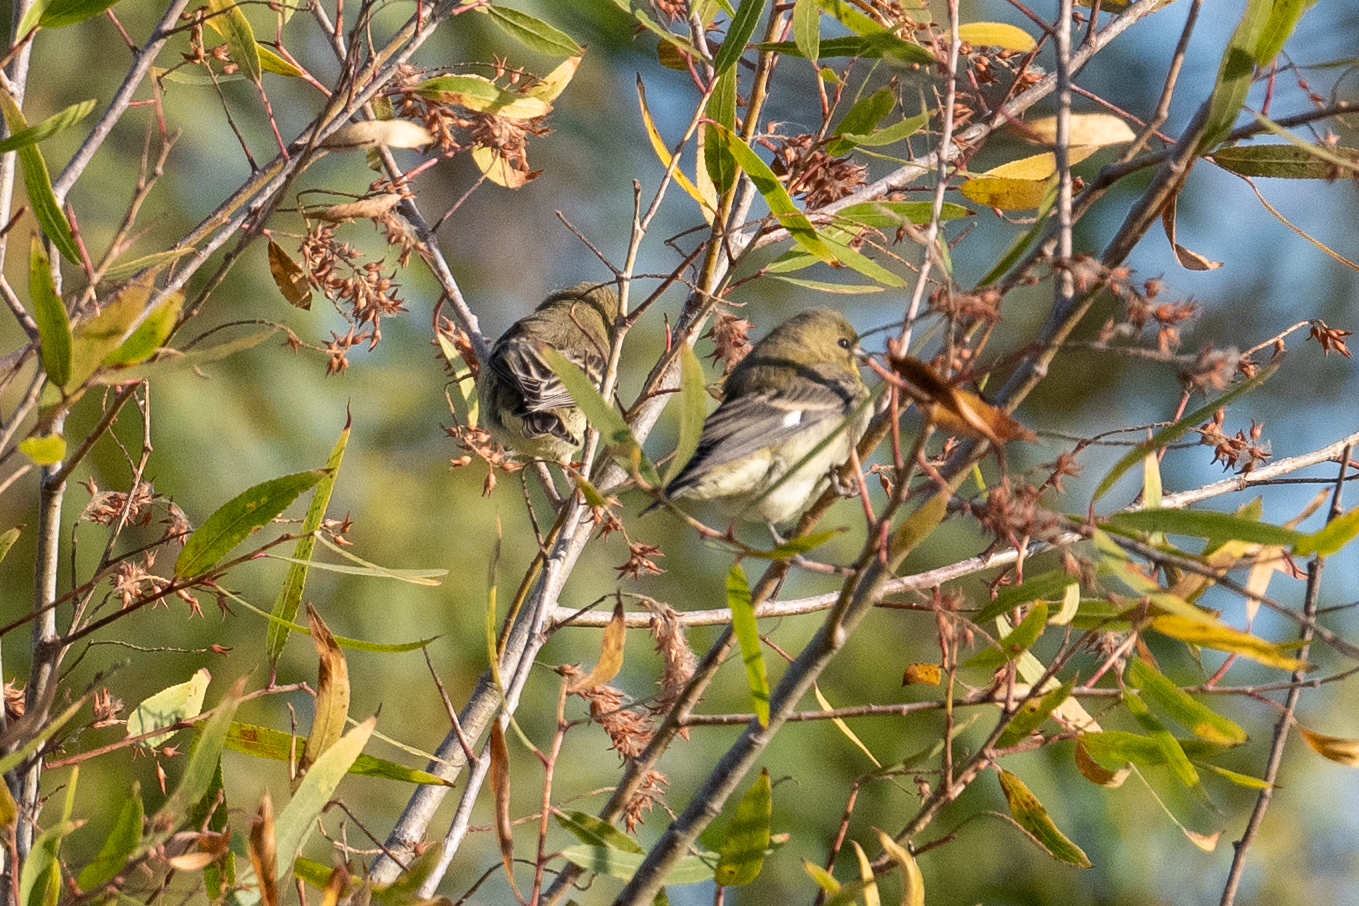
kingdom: Animalia
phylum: Chordata
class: Aves
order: Passeriformes
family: Fringillidae
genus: Spinus
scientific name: Spinus psaltria
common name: Lesser goldfinch
